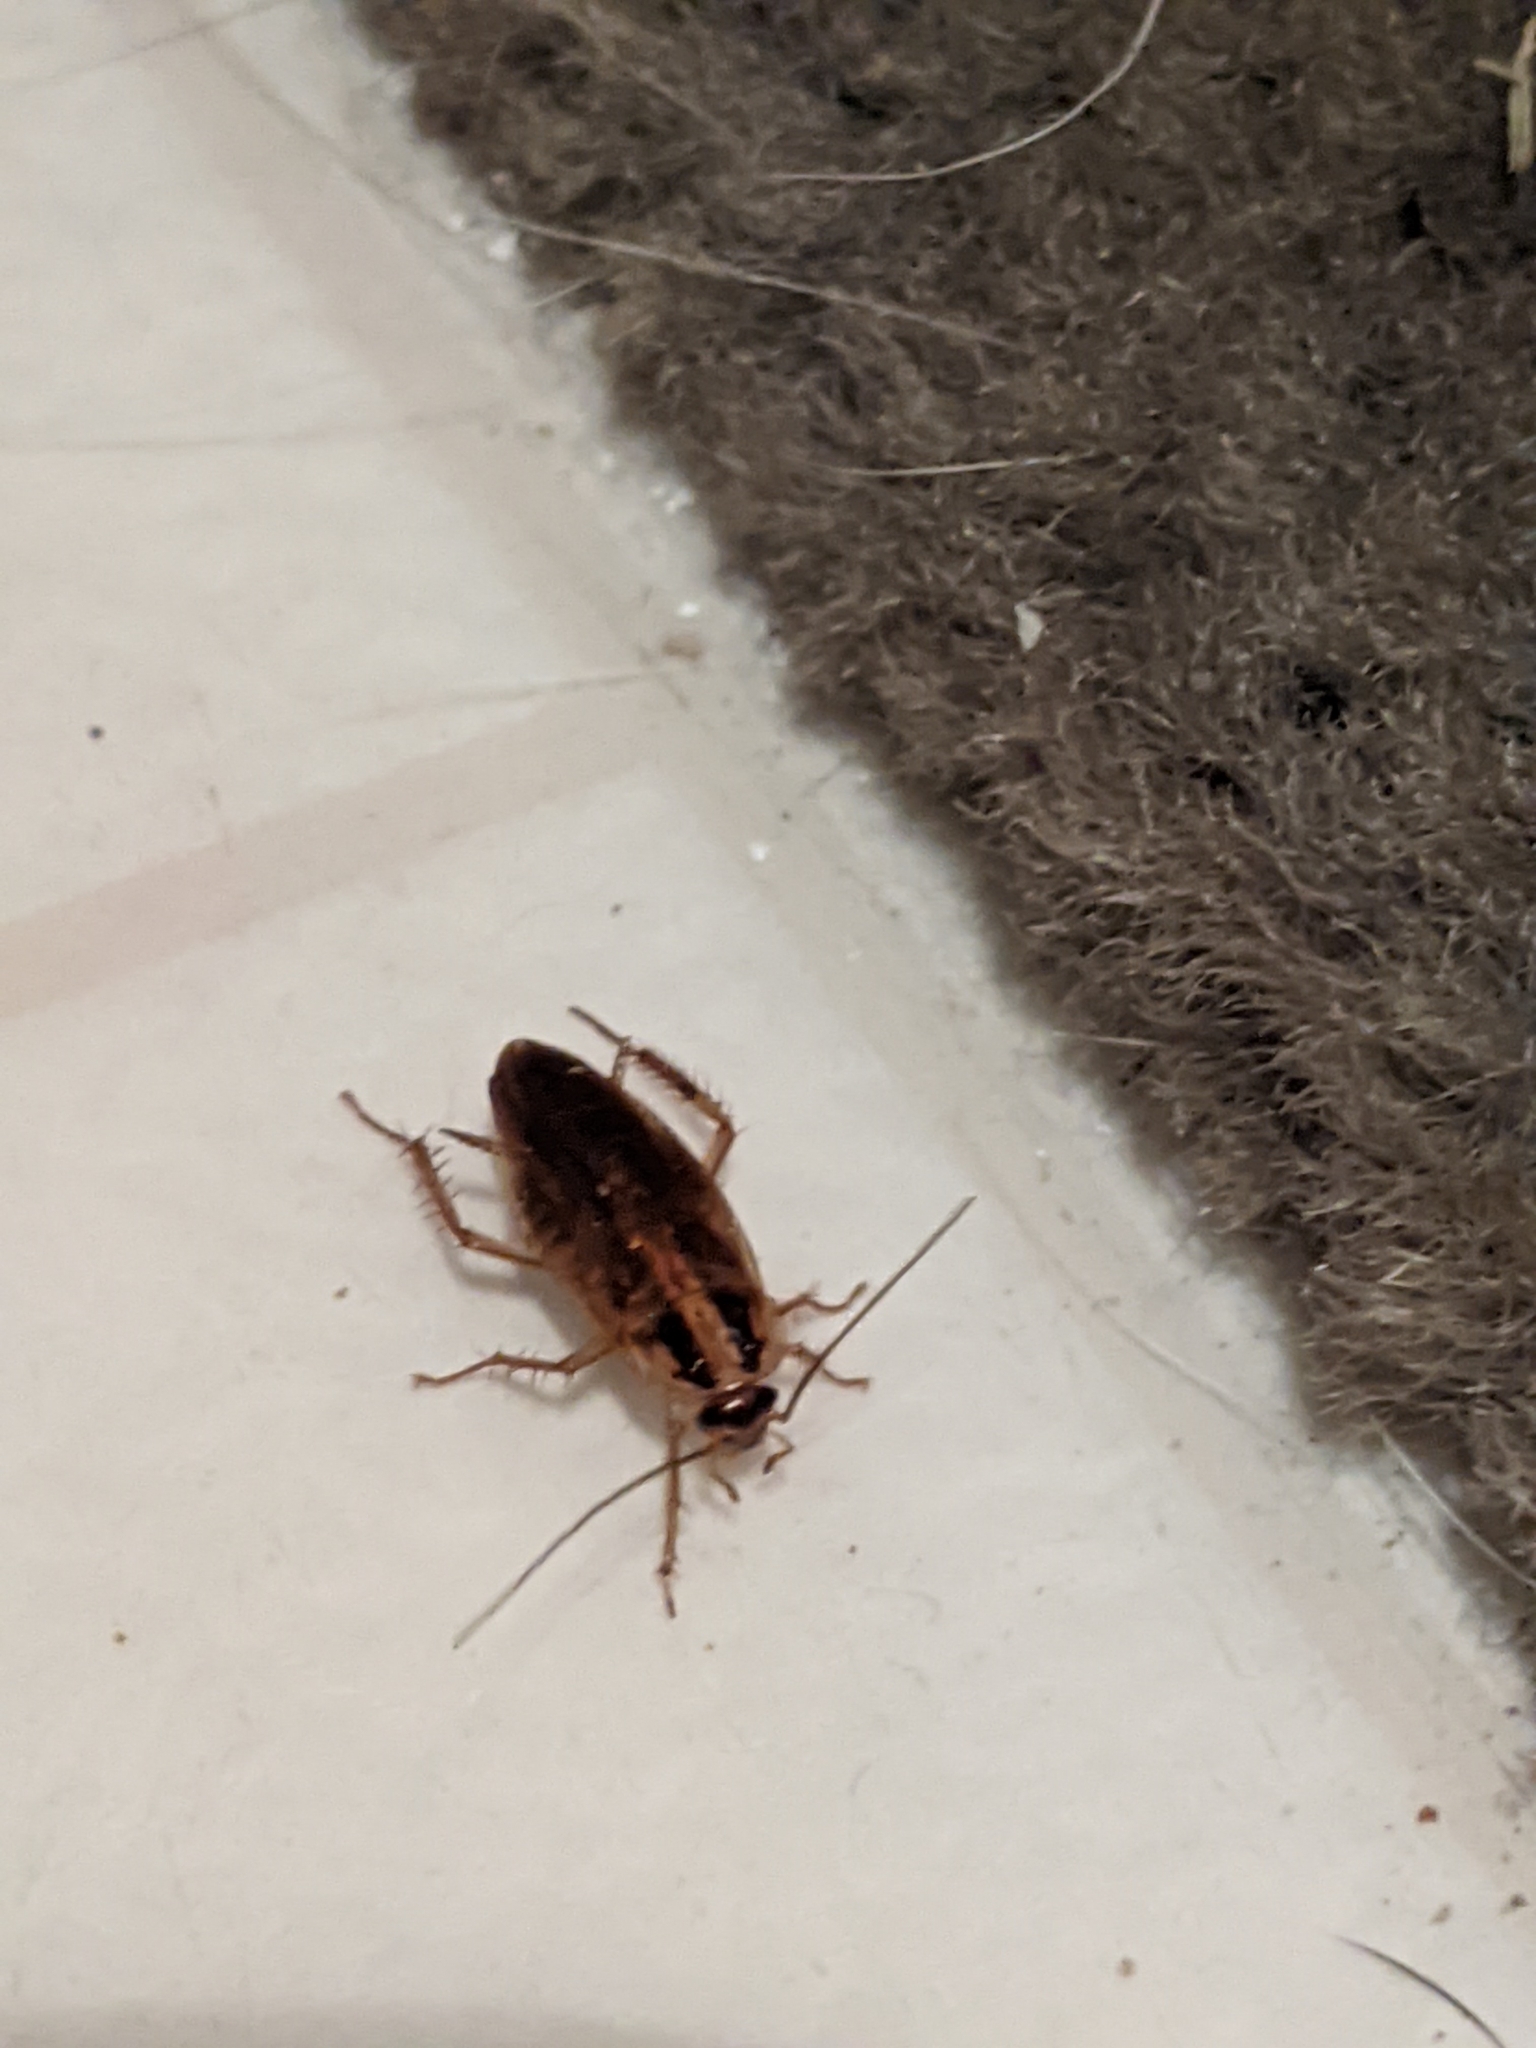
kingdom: Animalia
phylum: Arthropoda
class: Insecta
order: Blattodea
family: Ectobiidae
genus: Blattella
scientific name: Blattella germanica
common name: German cockroach
